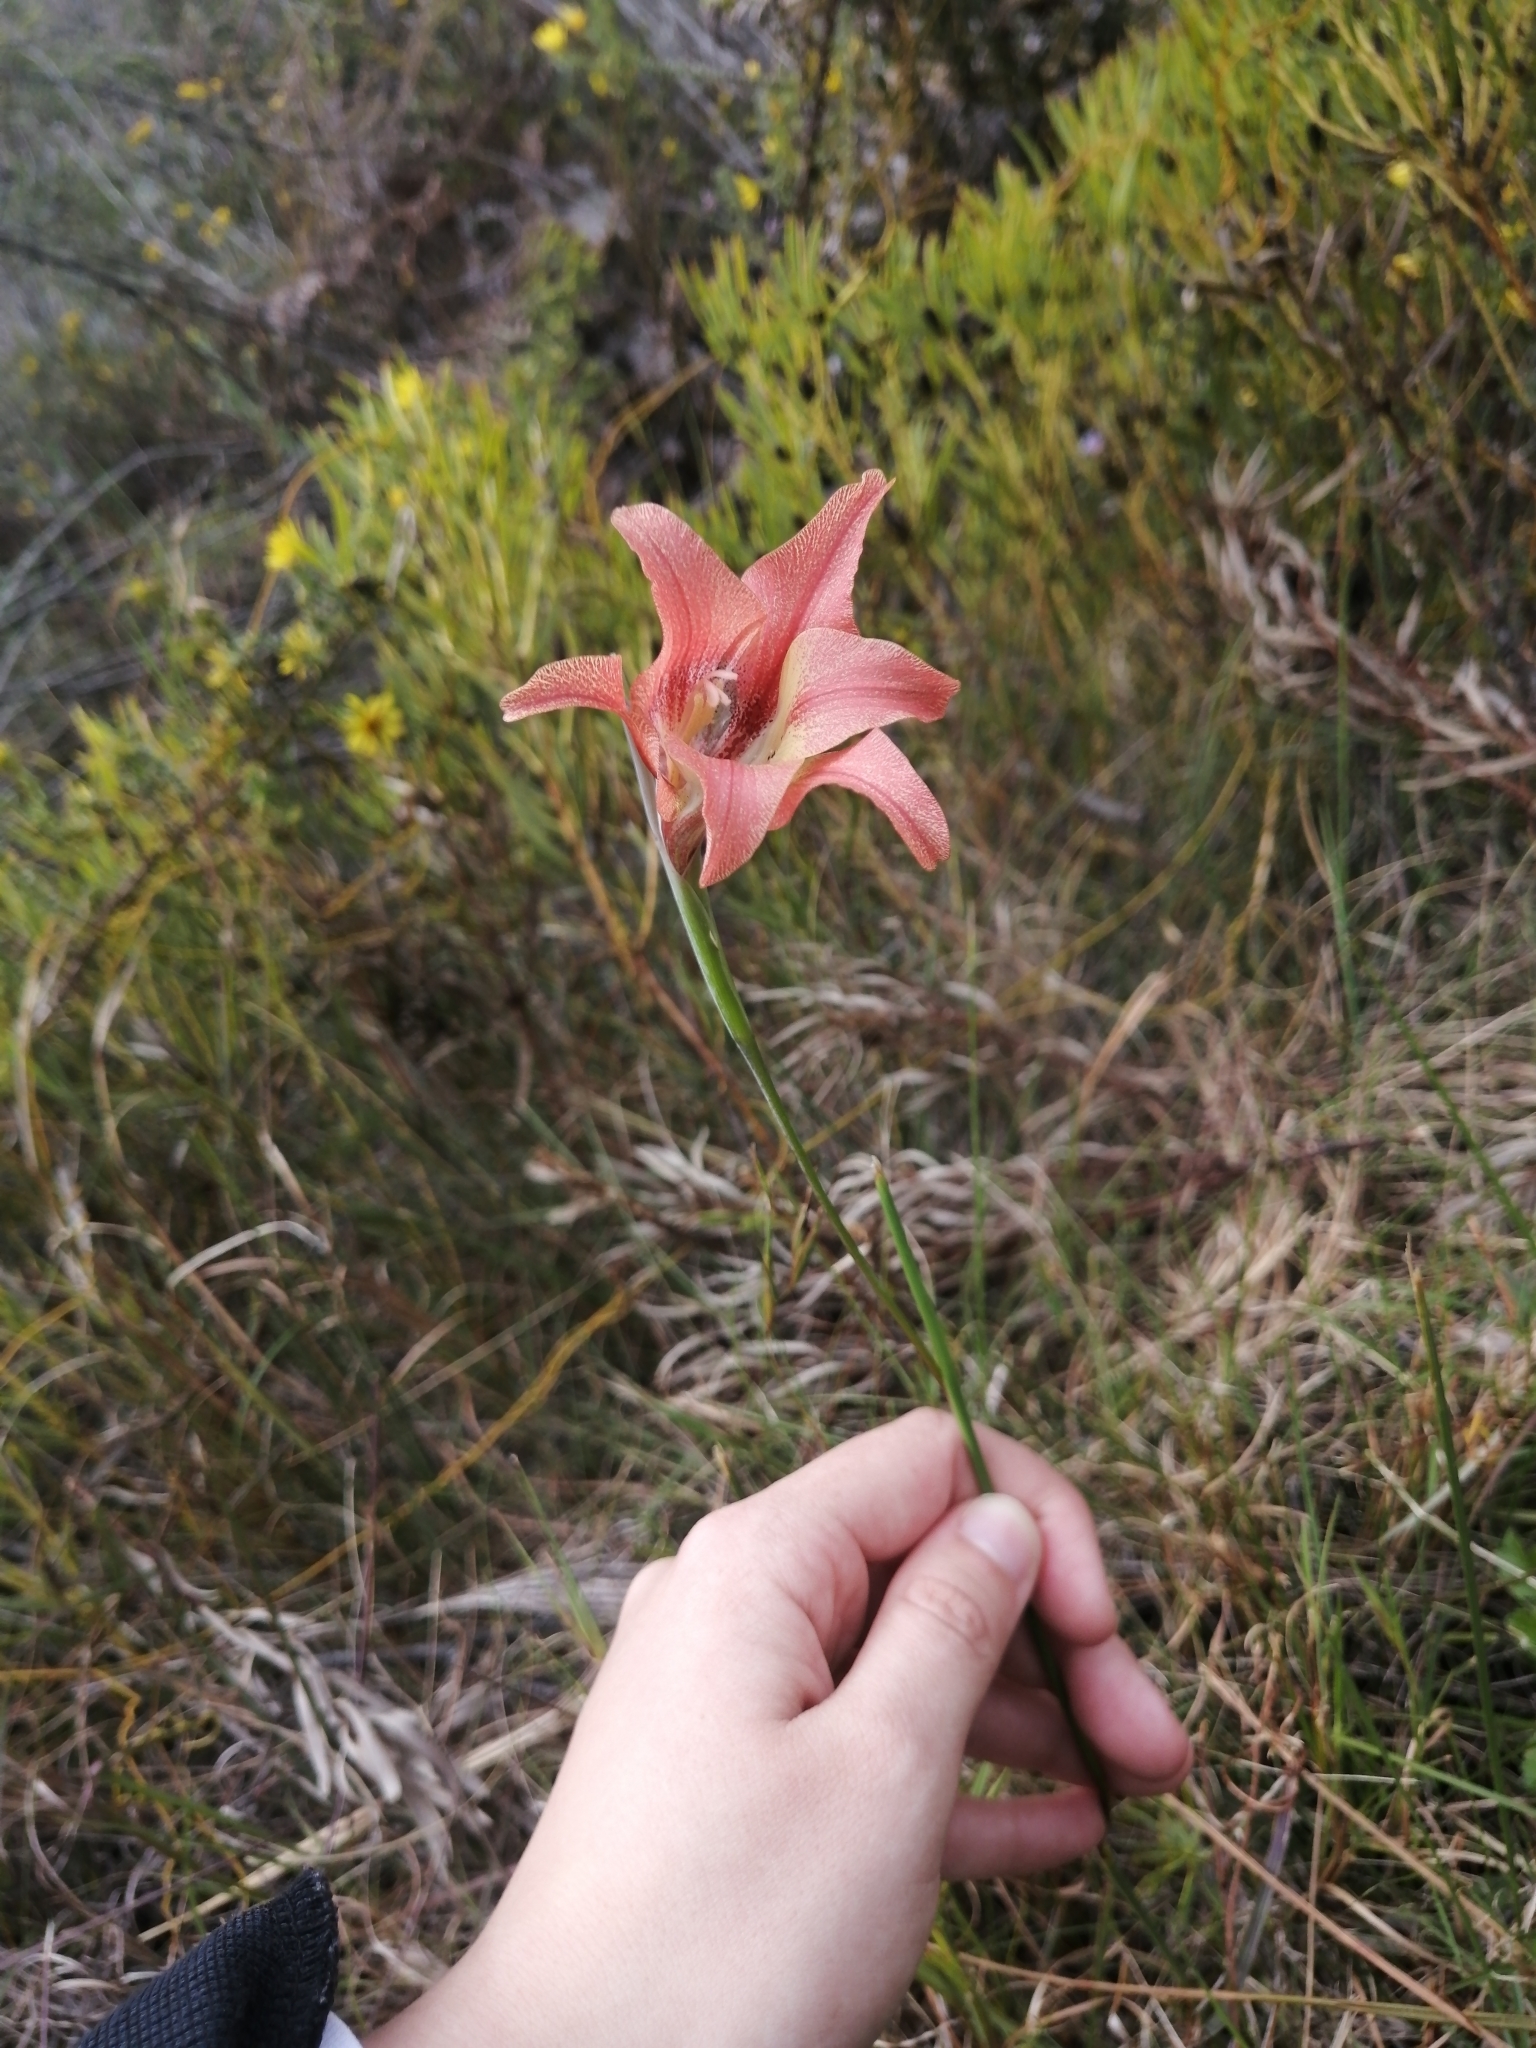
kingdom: Plantae
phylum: Tracheophyta
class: Liliopsida
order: Asparagales
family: Iridaceae
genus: Gladiolus
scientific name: Gladiolus liliaceus
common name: Large brown afrikaner
